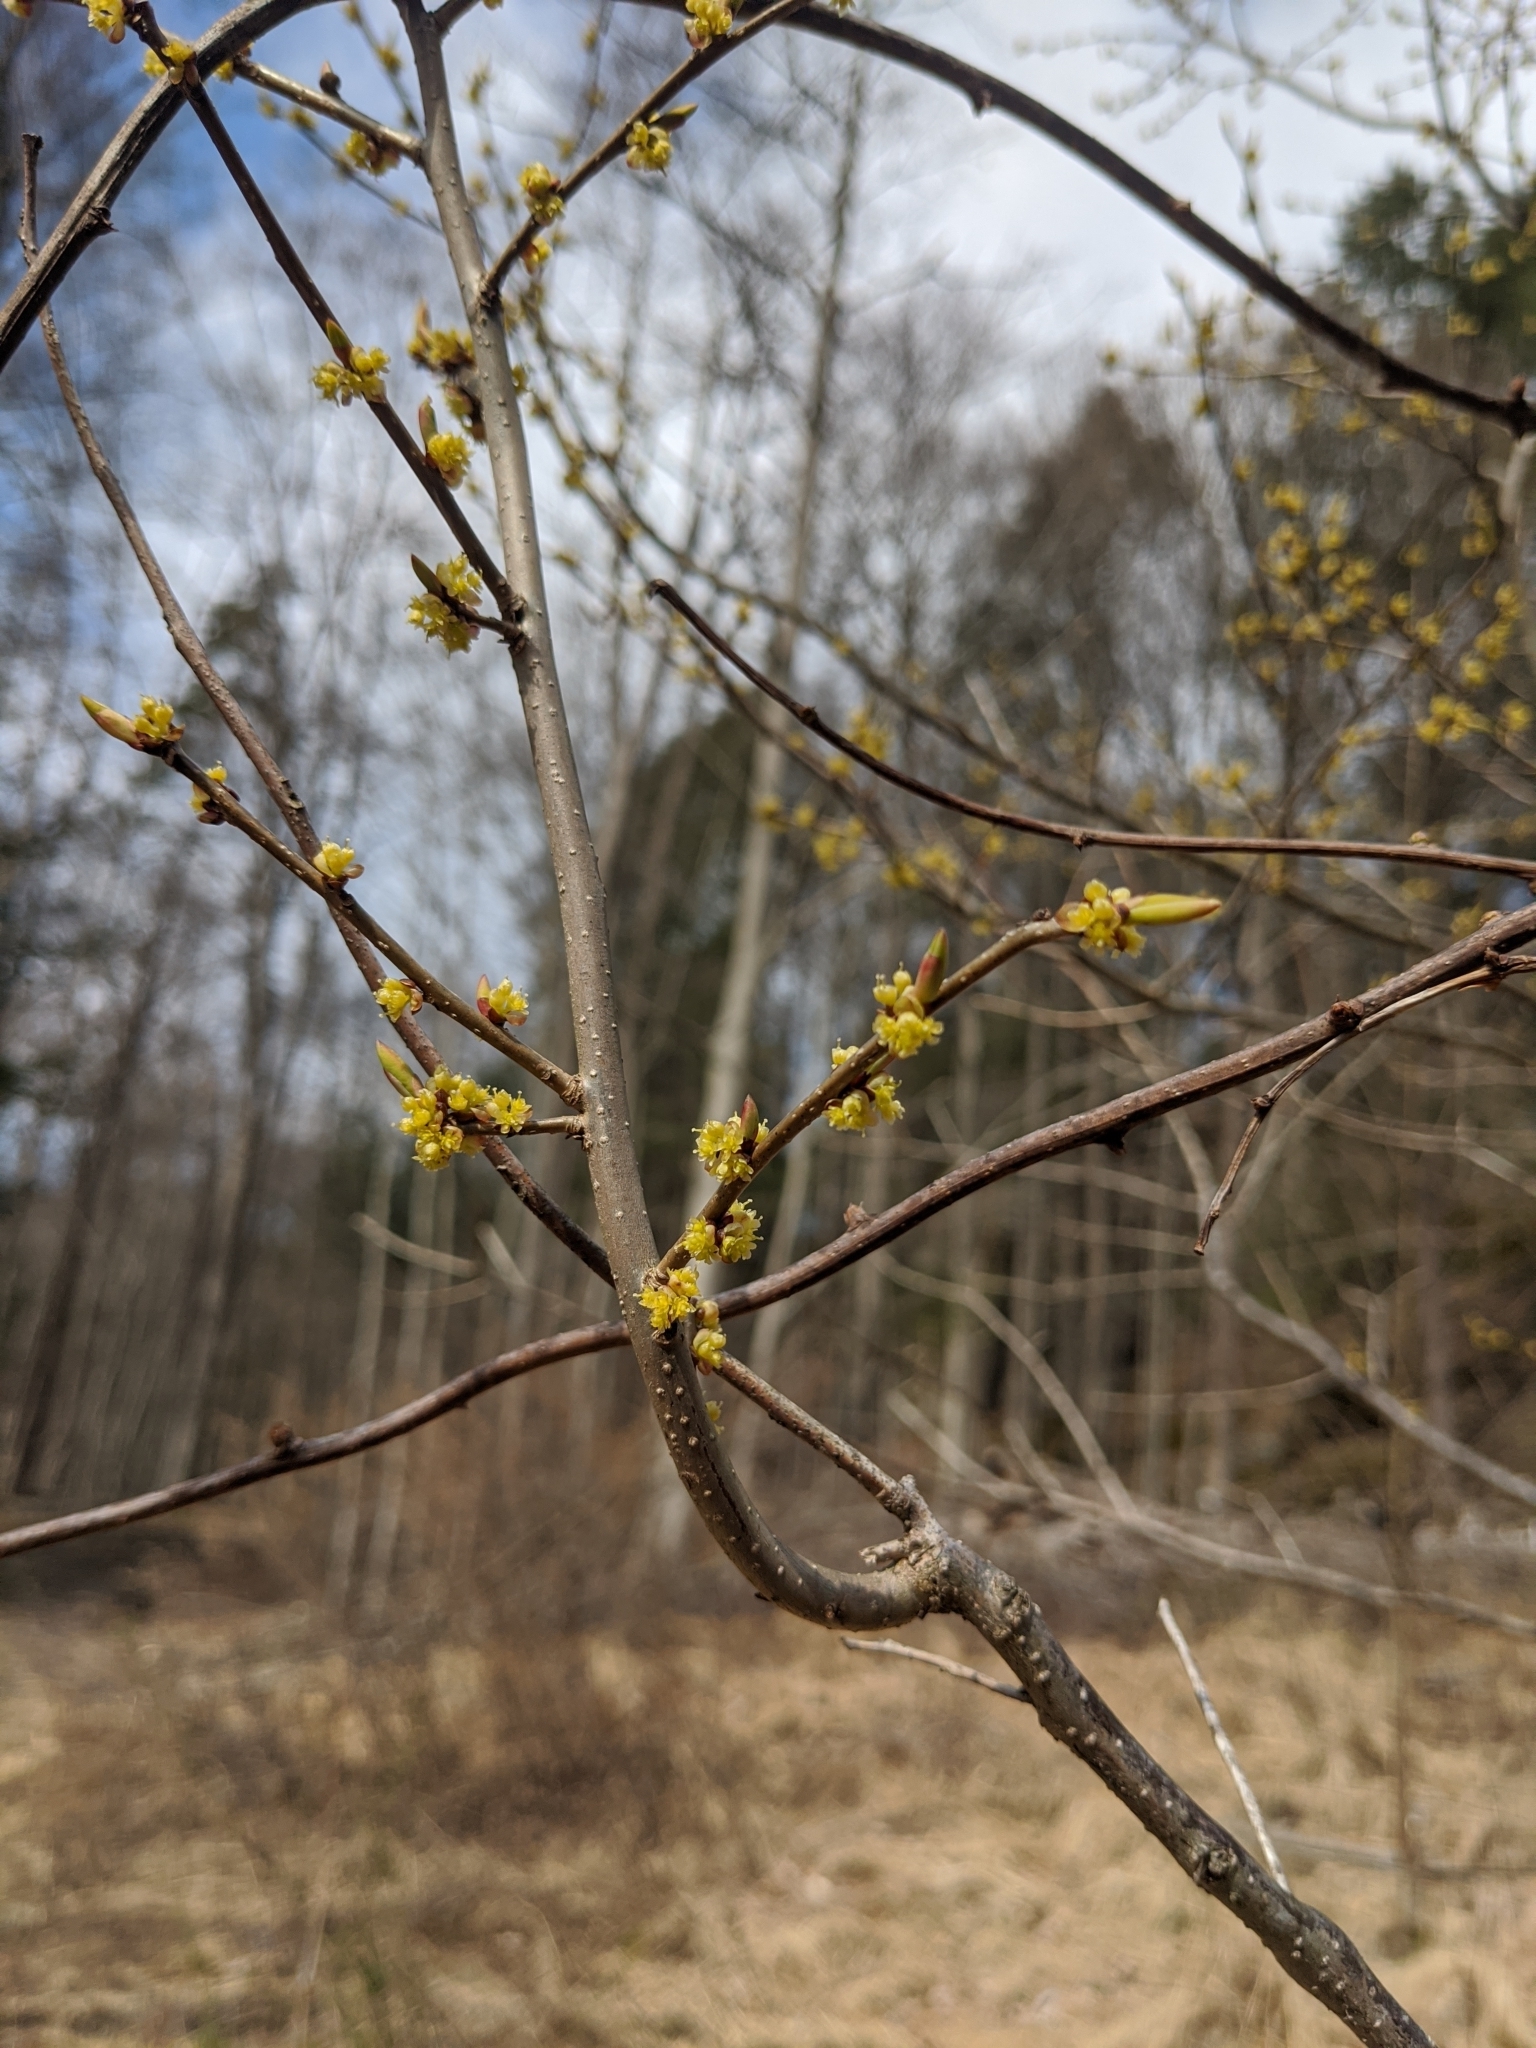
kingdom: Plantae
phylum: Tracheophyta
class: Magnoliopsida
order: Laurales
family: Lauraceae
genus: Lindera
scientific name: Lindera benzoin
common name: Spicebush
